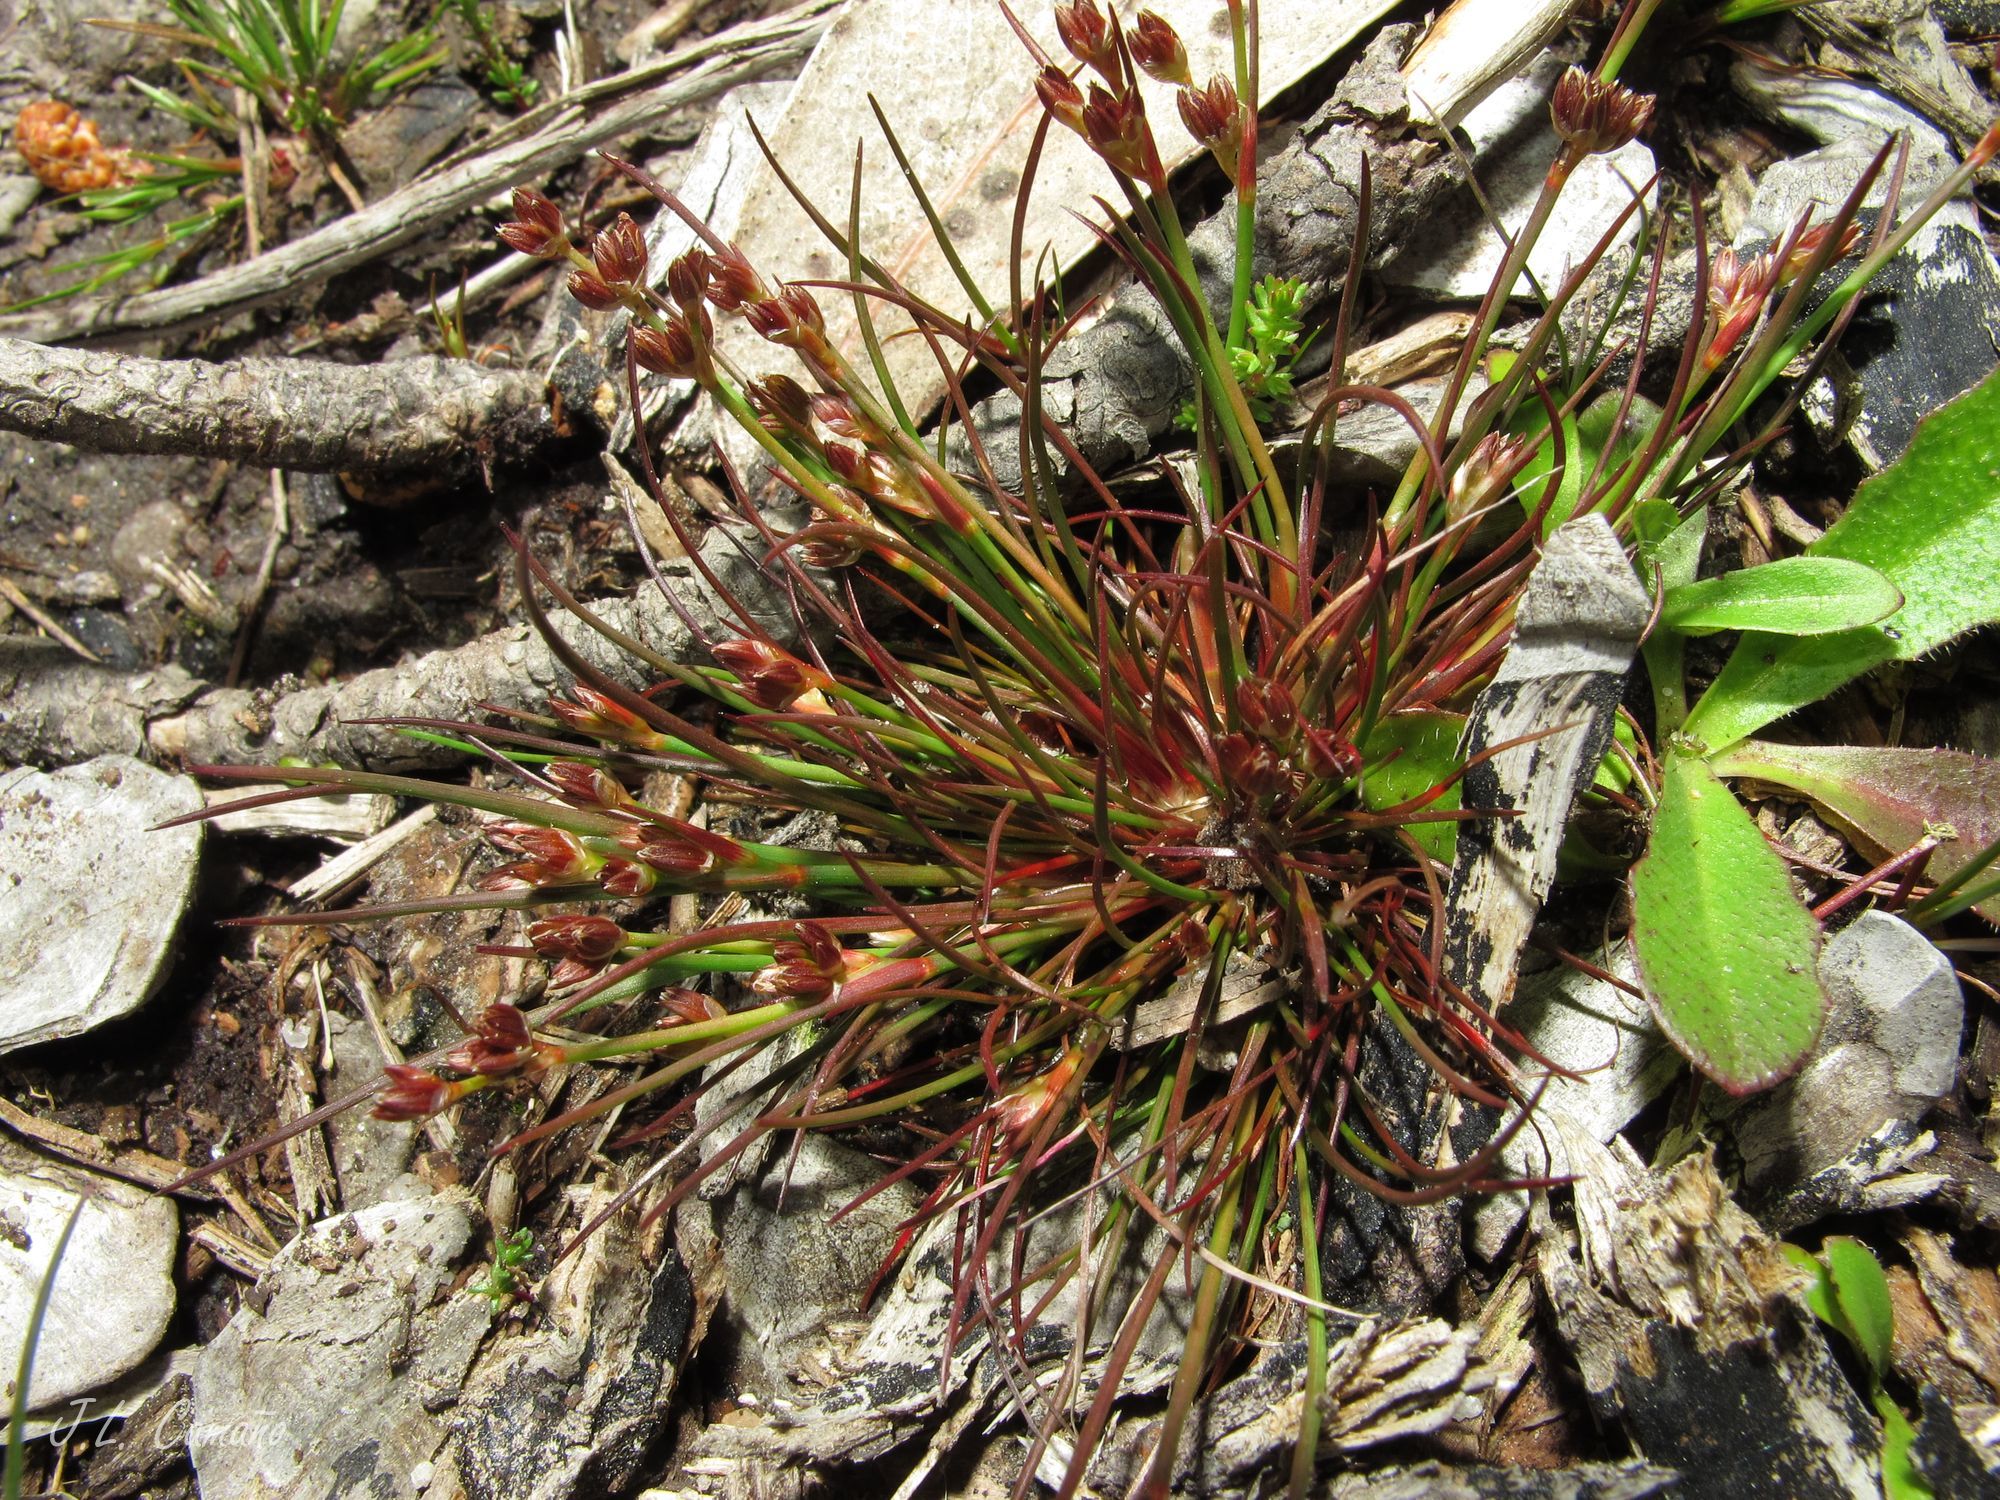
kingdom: Plantae
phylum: Tracheophyta
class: Liliopsida
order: Poales
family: Juncaceae
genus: Juncus
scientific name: Juncus capitatus
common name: Dwarf rush
